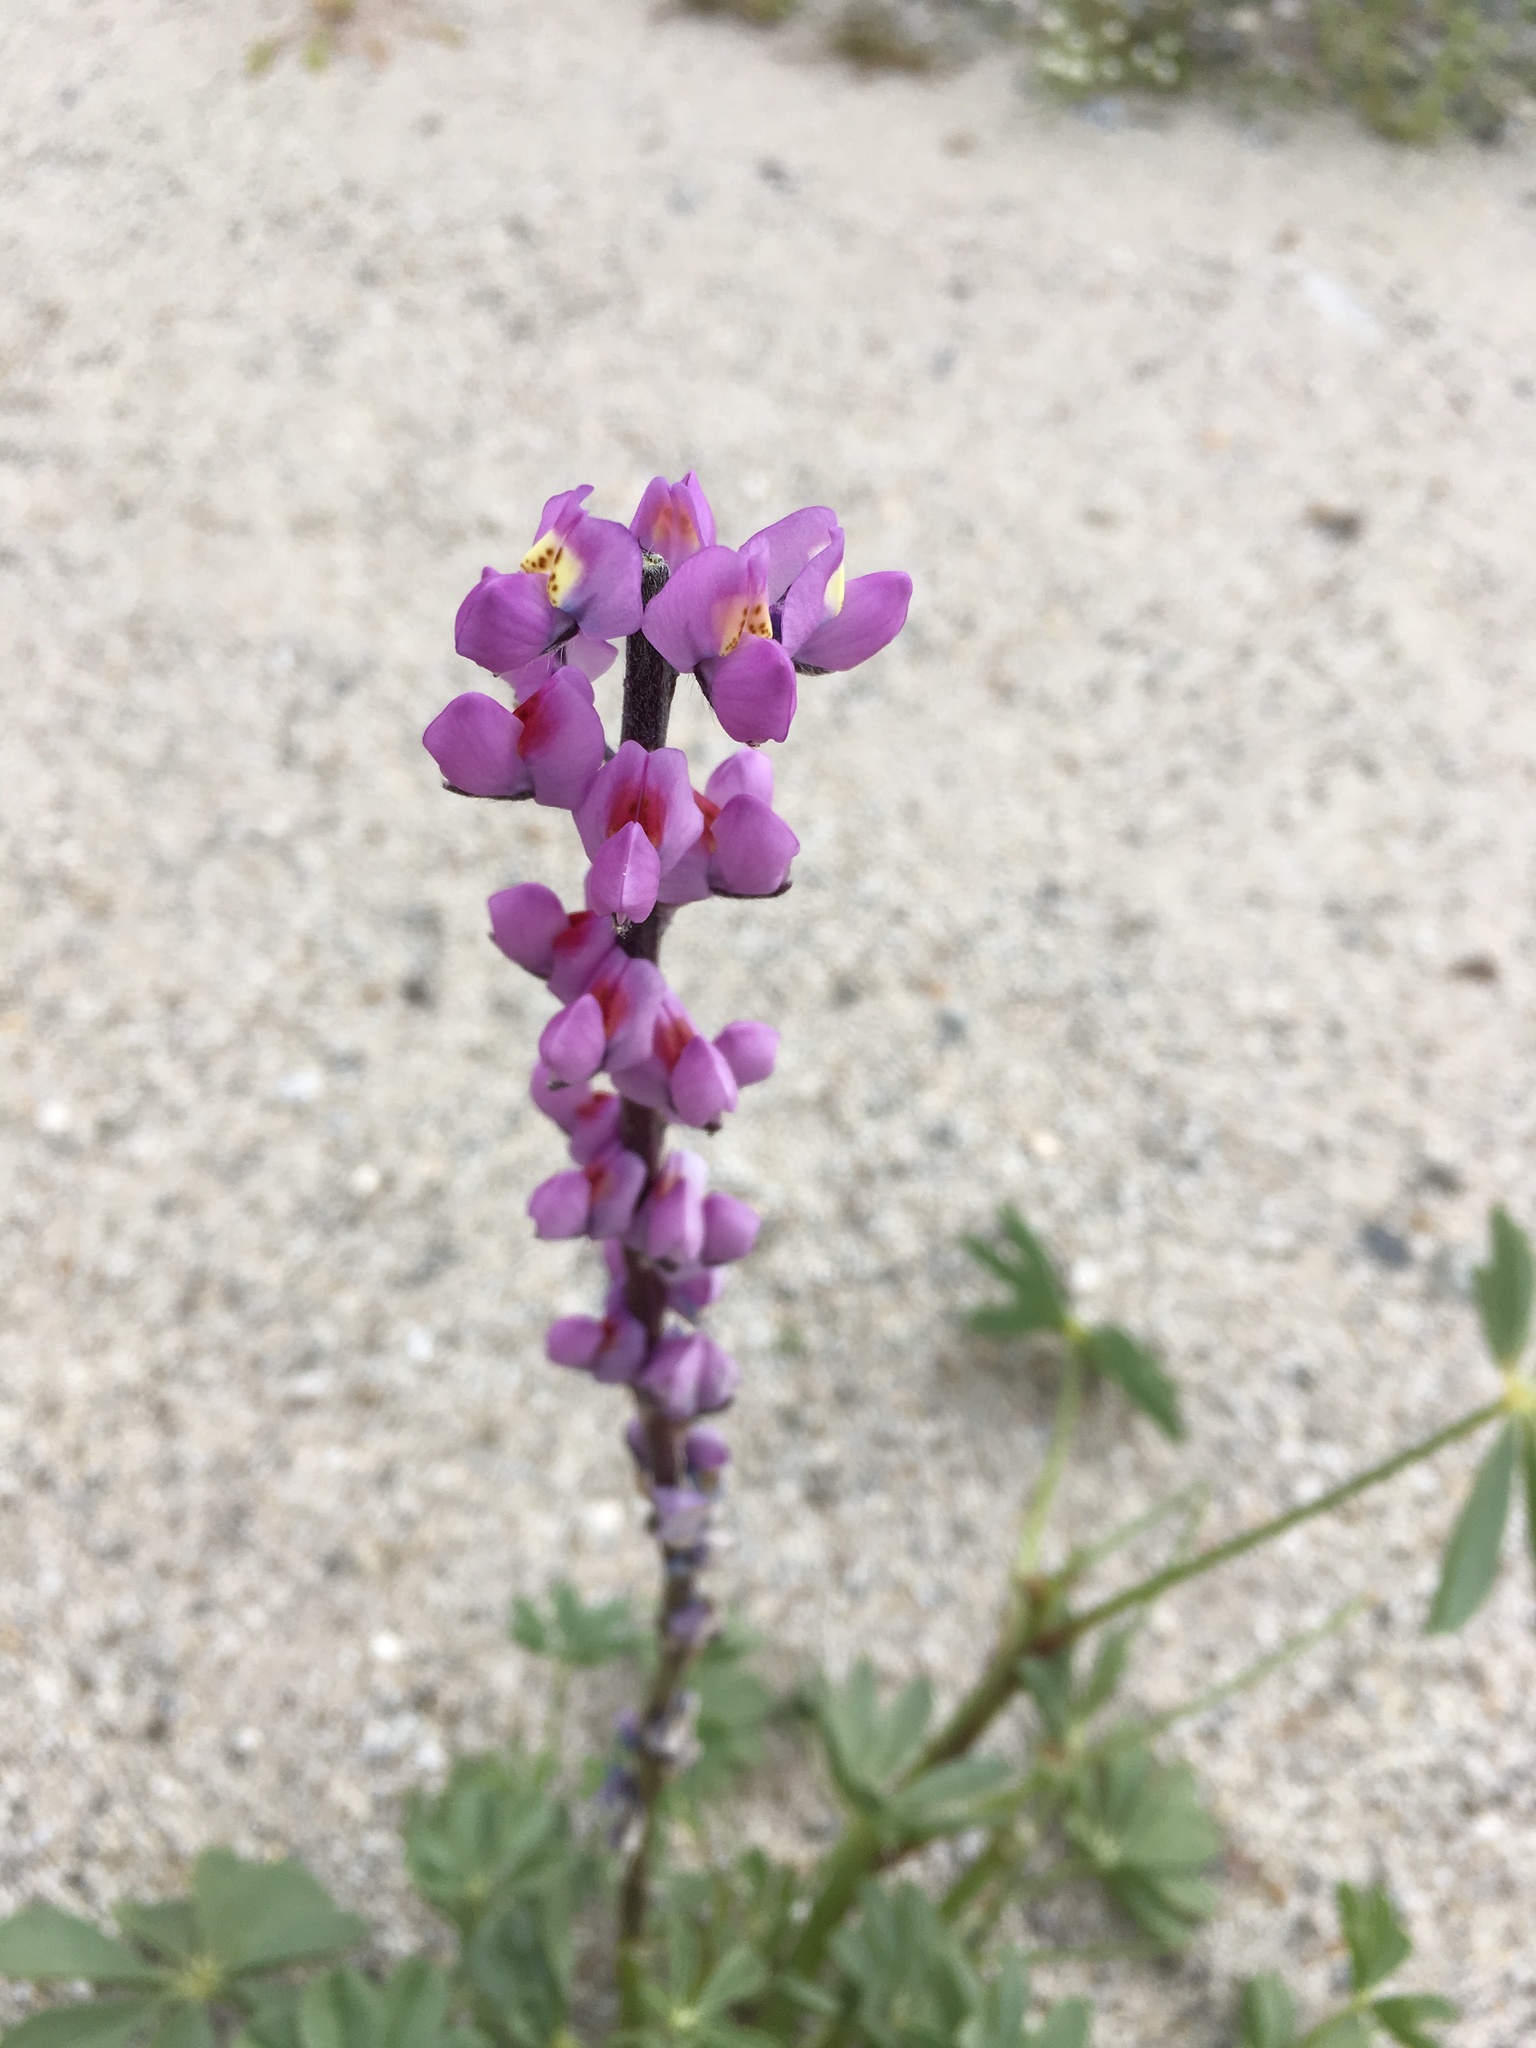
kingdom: Plantae
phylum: Tracheophyta
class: Magnoliopsida
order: Fabales
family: Fabaceae
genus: Lupinus
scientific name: Lupinus arizonicus
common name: Arizona lupine
